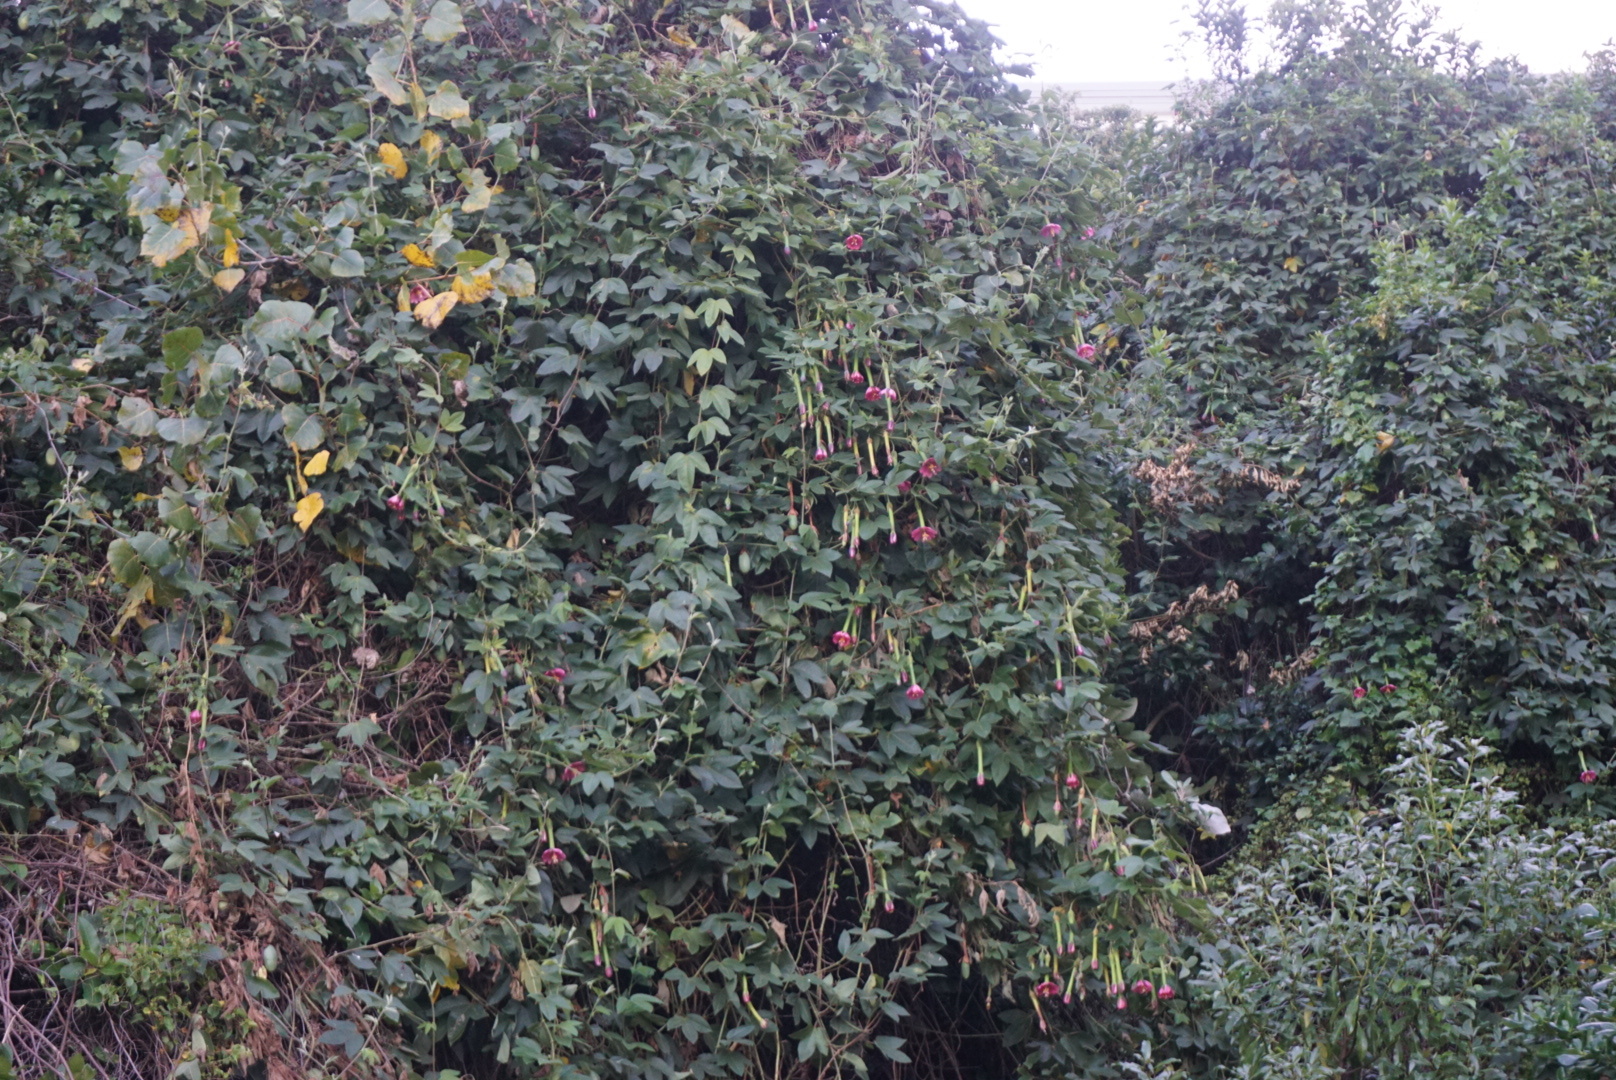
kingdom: Plantae
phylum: Tracheophyta
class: Magnoliopsida
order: Malpighiales
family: Passifloraceae
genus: Passiflora
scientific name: Passiflora tripartita
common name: Banana poka
